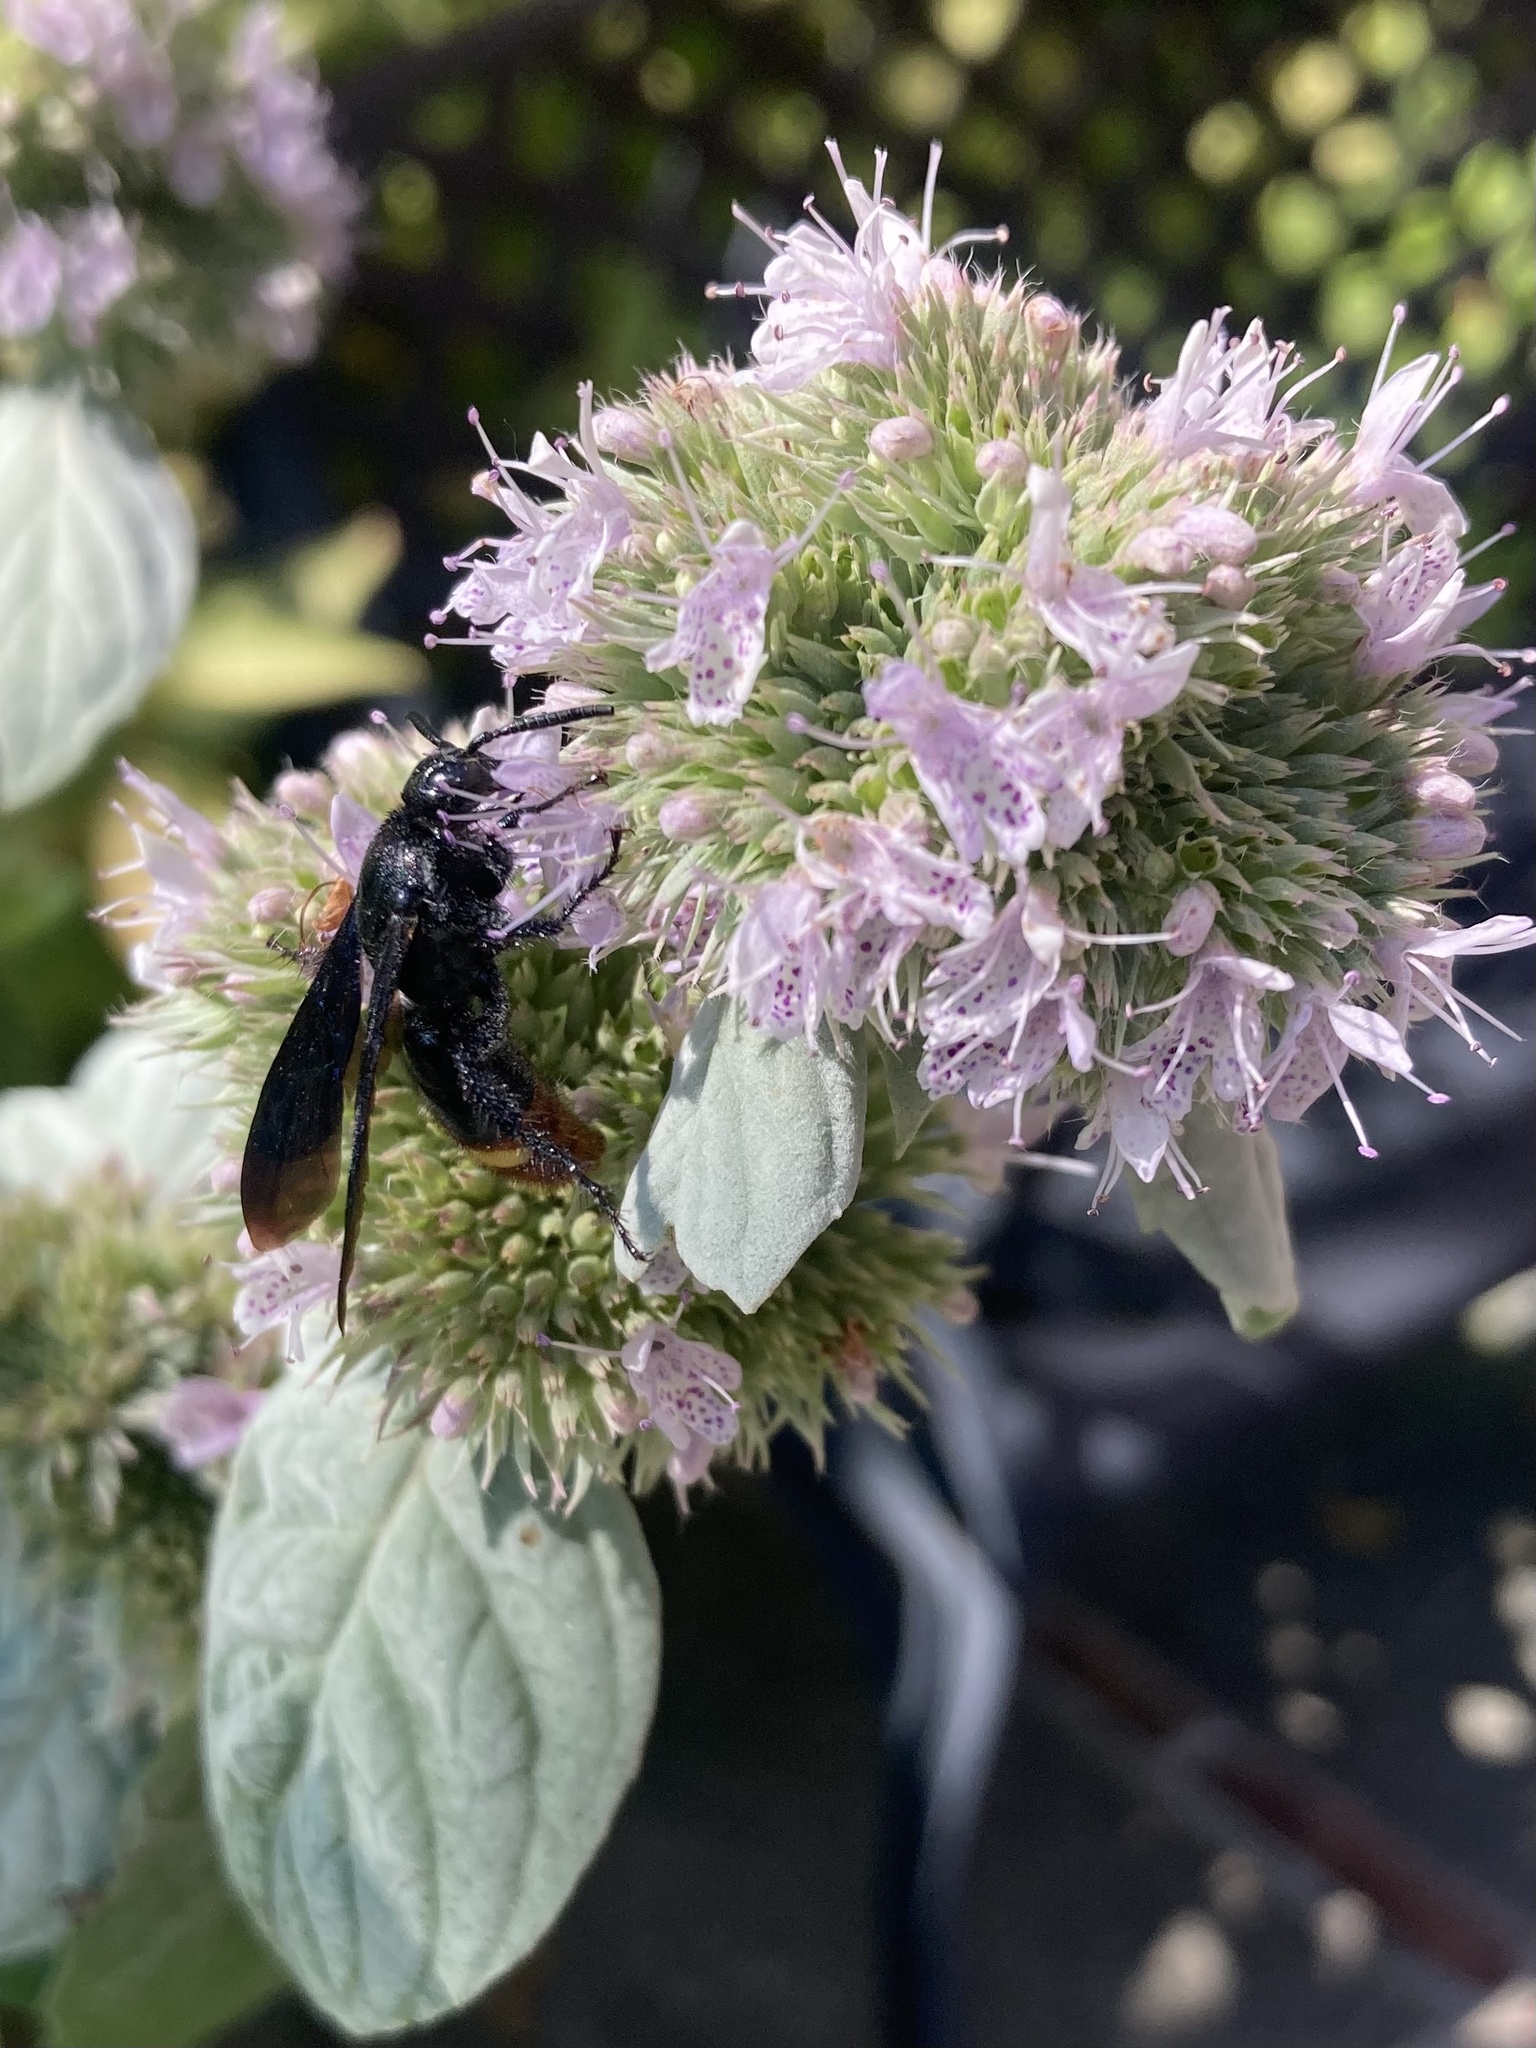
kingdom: Animalia
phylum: Arthropoda
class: Insecta
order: Hymenoptera
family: Scoliidae
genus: Scolia
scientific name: Scolia dubia
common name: Blue-winged scoliid wasp
